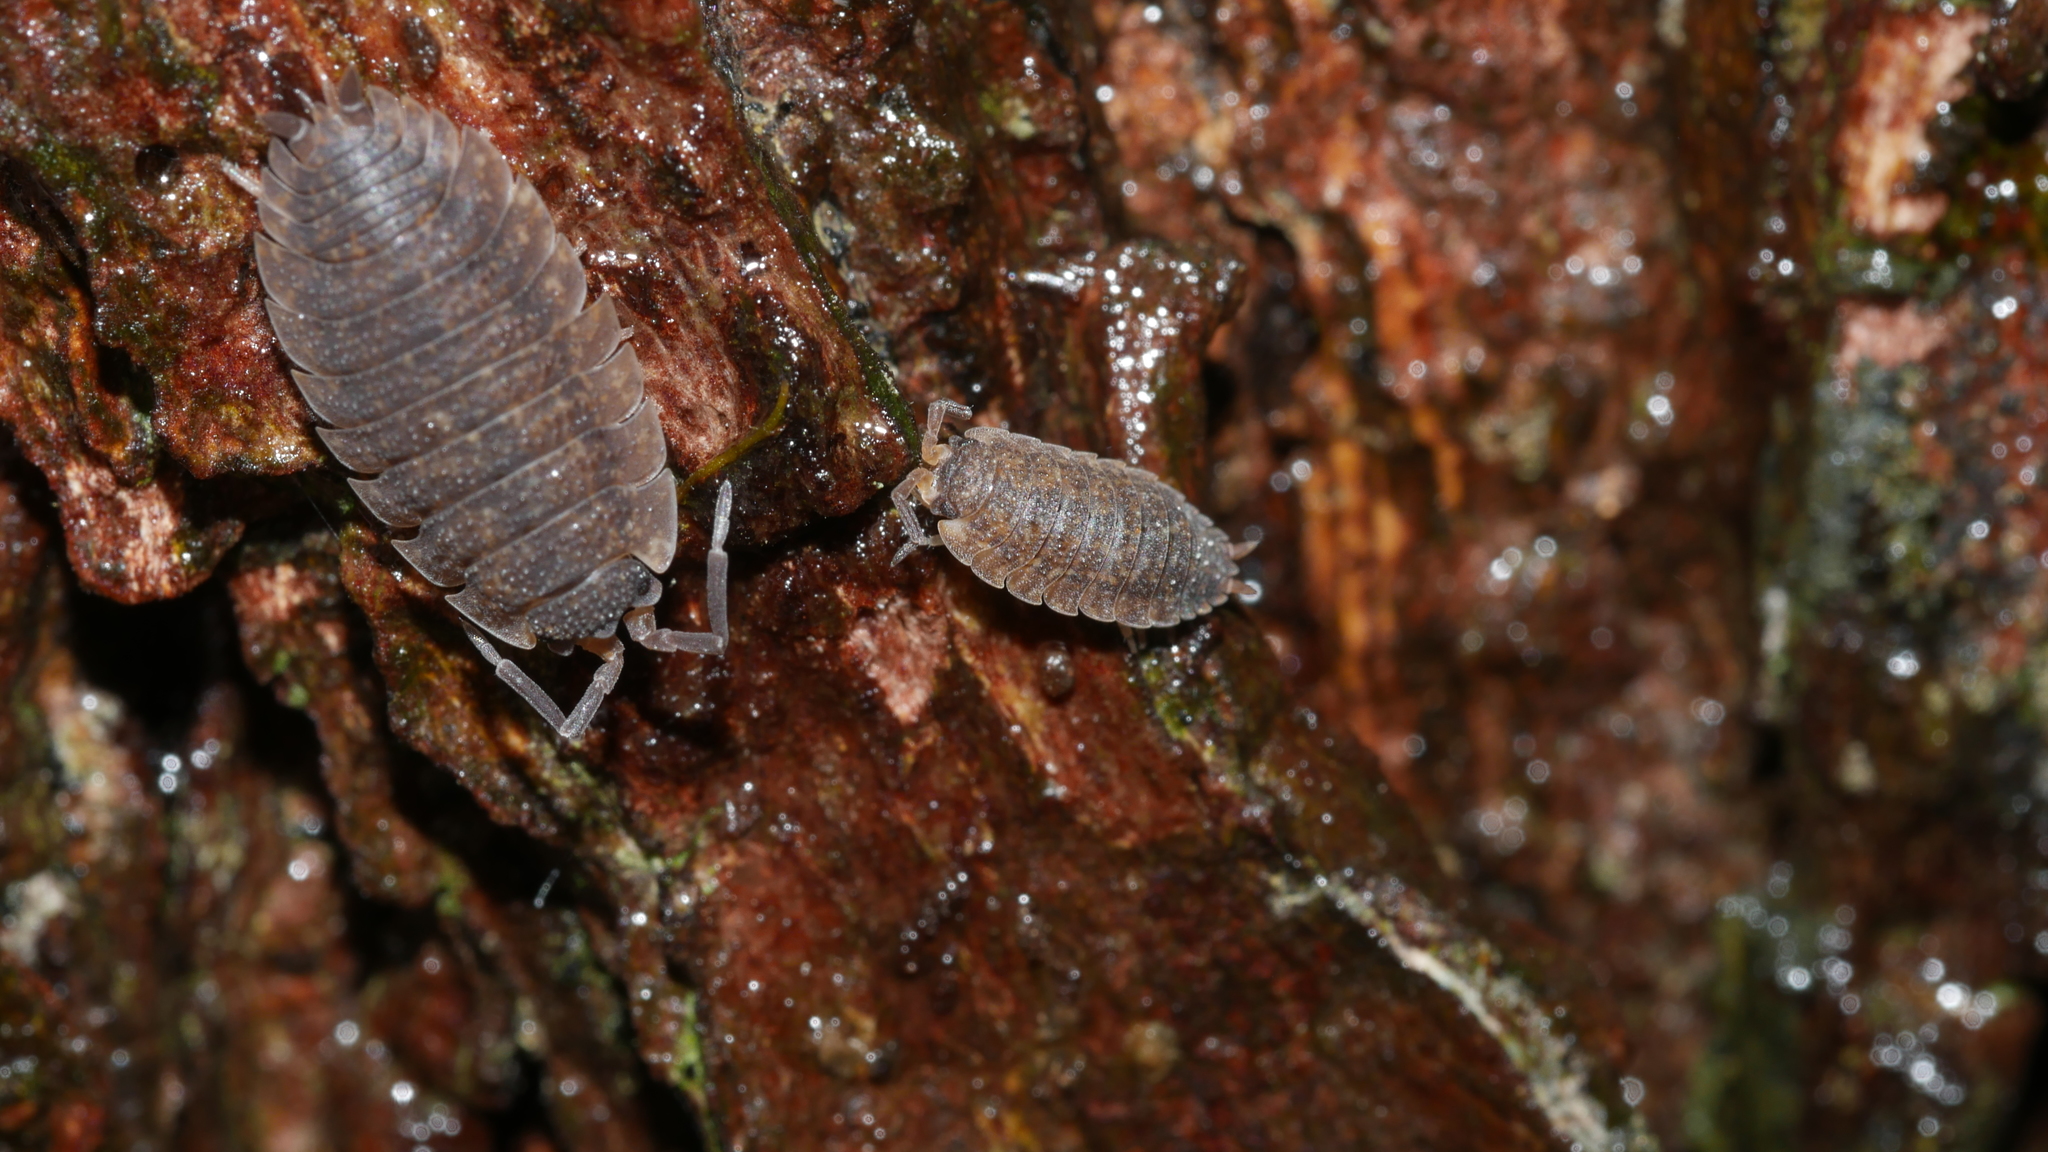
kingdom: Animalia
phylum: Arthropoda
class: Malacostraca
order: Isopoda
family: Porcellionidae
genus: Porcellio
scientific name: Porcellio scaber
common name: Common rough woodlouse
